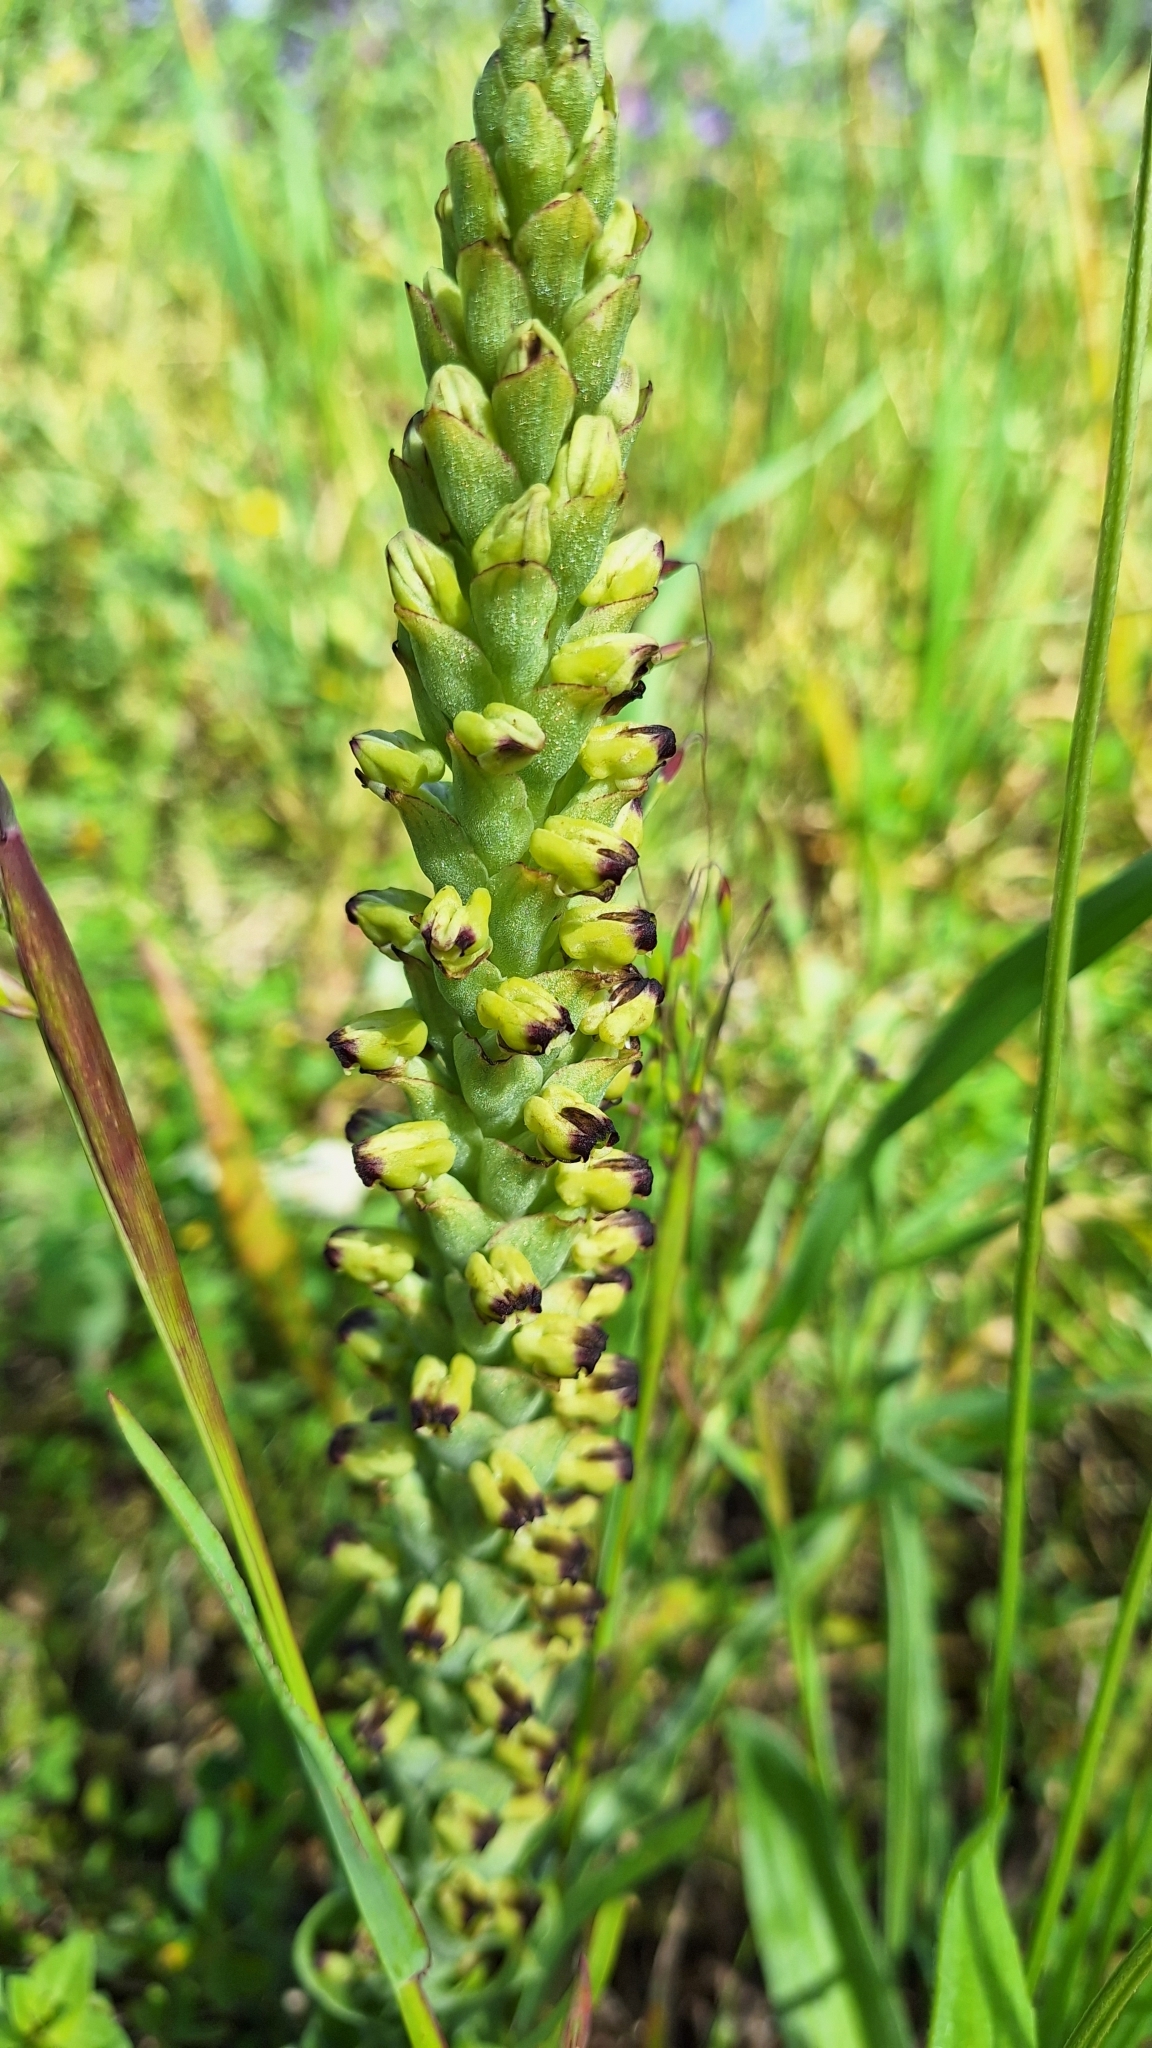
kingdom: Plantae
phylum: Tracheophyta
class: Liliopsida
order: Asparagales
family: Orchidaceae
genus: Corycium
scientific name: Corycium orobanchoides
